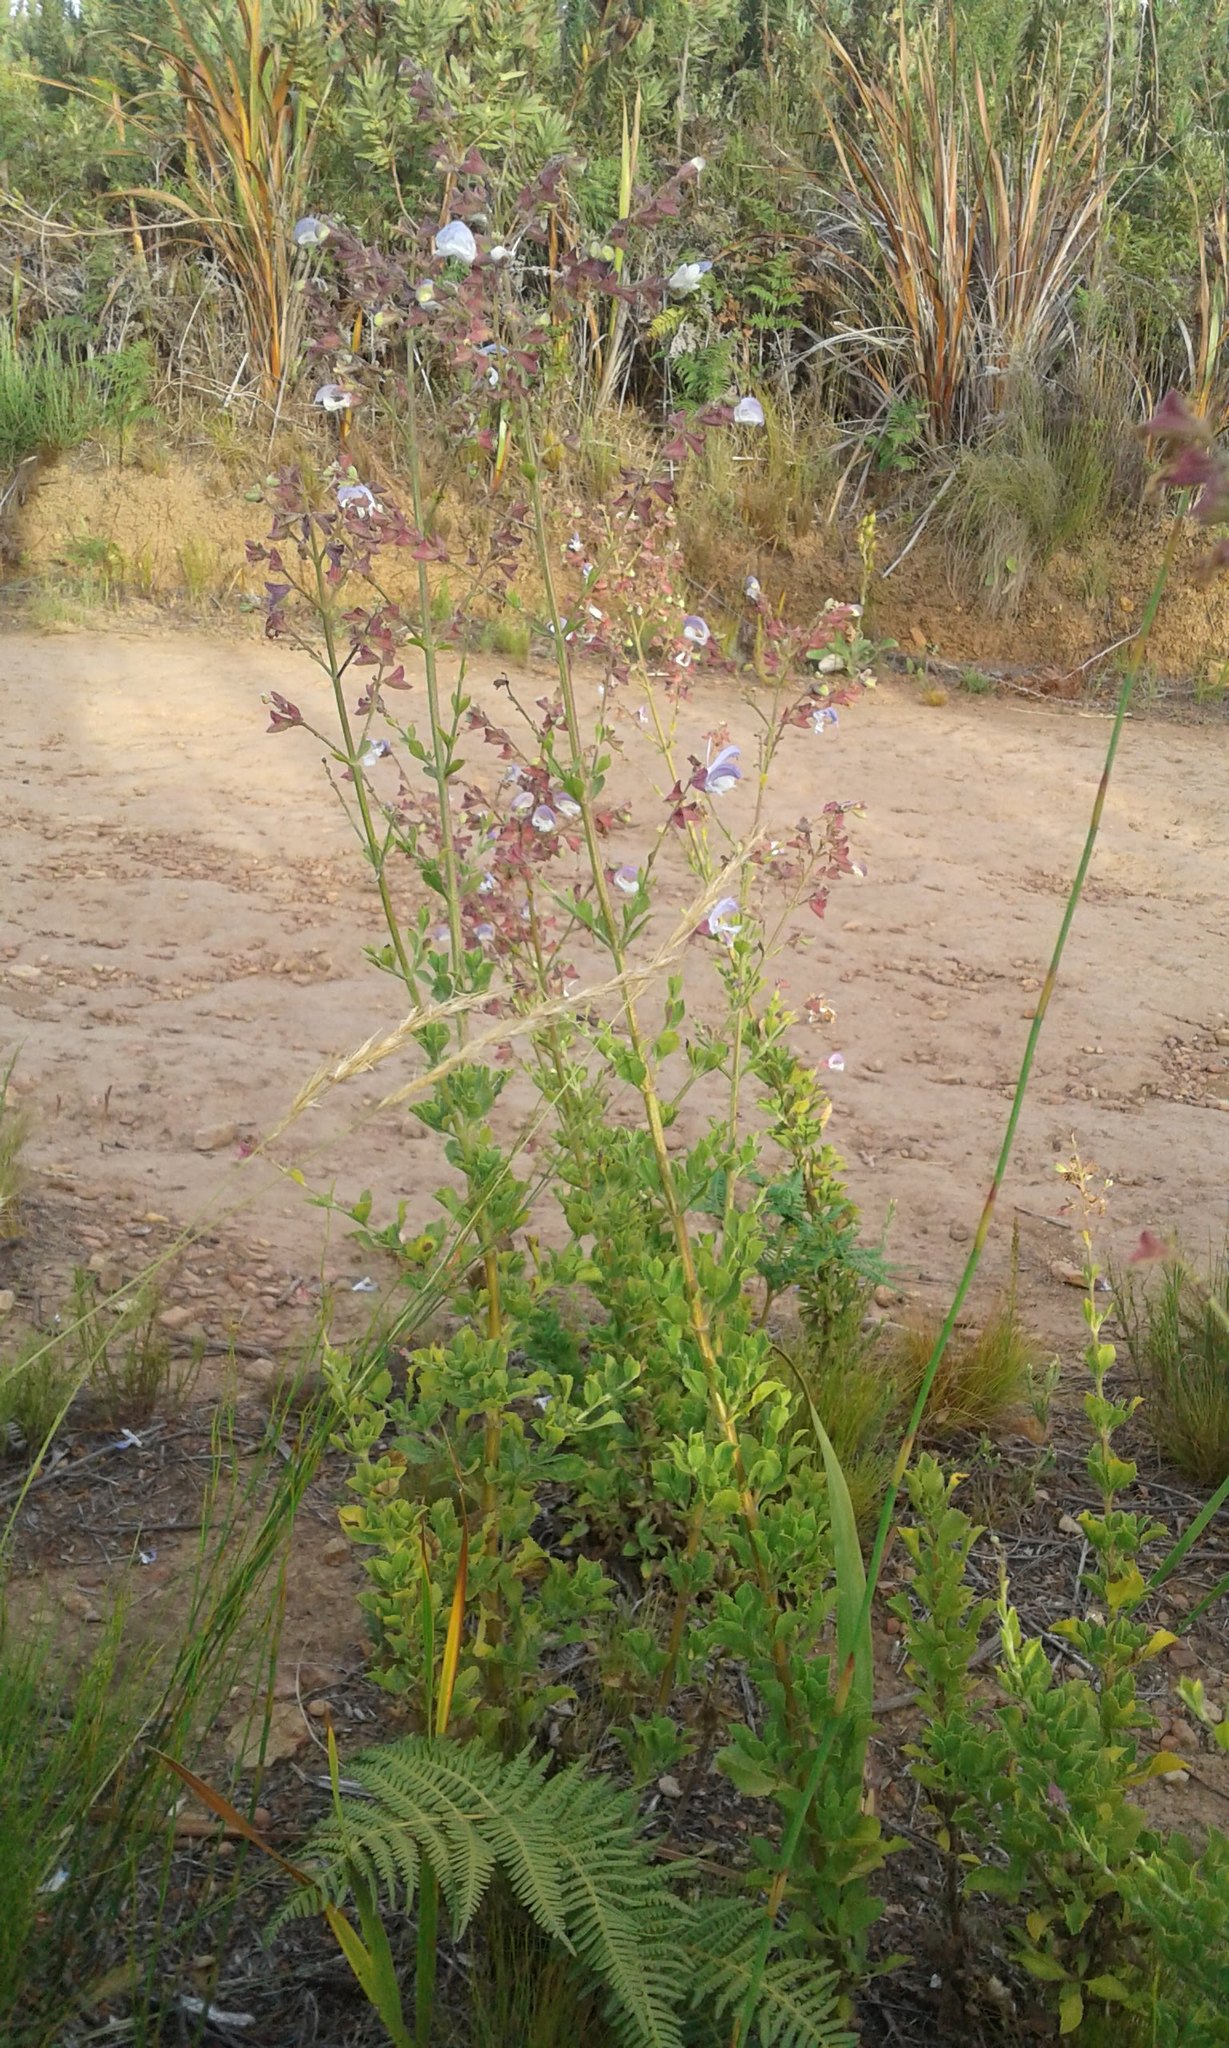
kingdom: Plantae
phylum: Tracheophyta
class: Magnoliopsida
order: Lamiales
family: Lamiaceae
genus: Salvia
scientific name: Salvia chamelaeagnea
